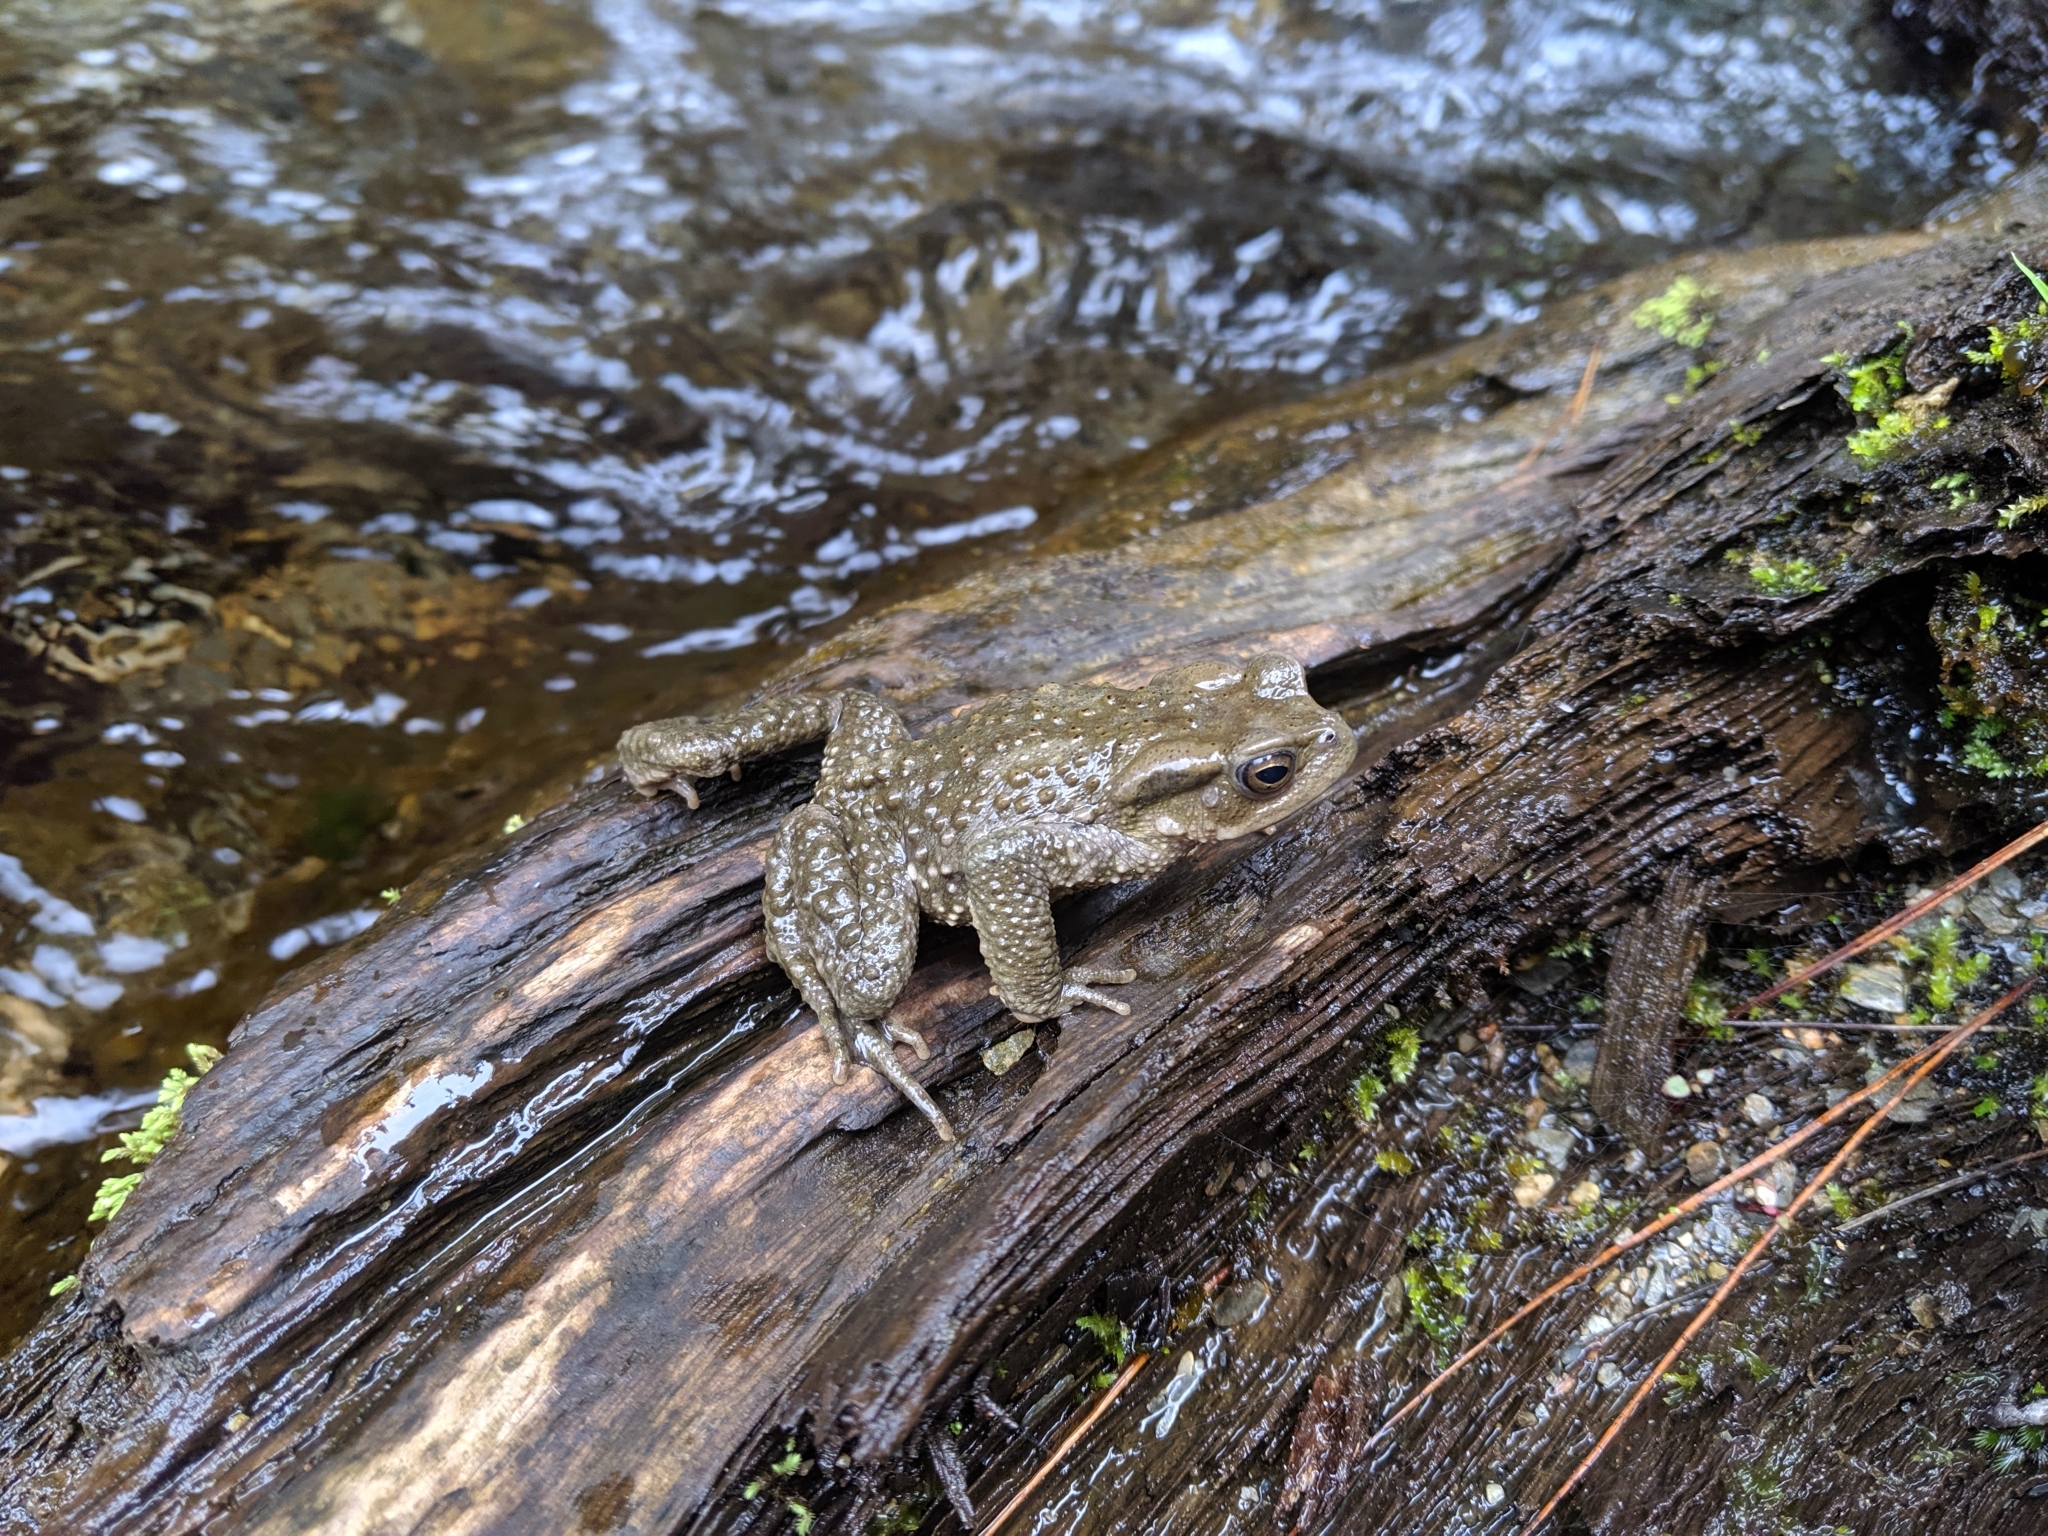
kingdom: Animalia
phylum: Chordata
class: Amphibia
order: Anura
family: Bufonidae
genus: Bufo
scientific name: Bufo bankorensis
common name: Bankor toad
